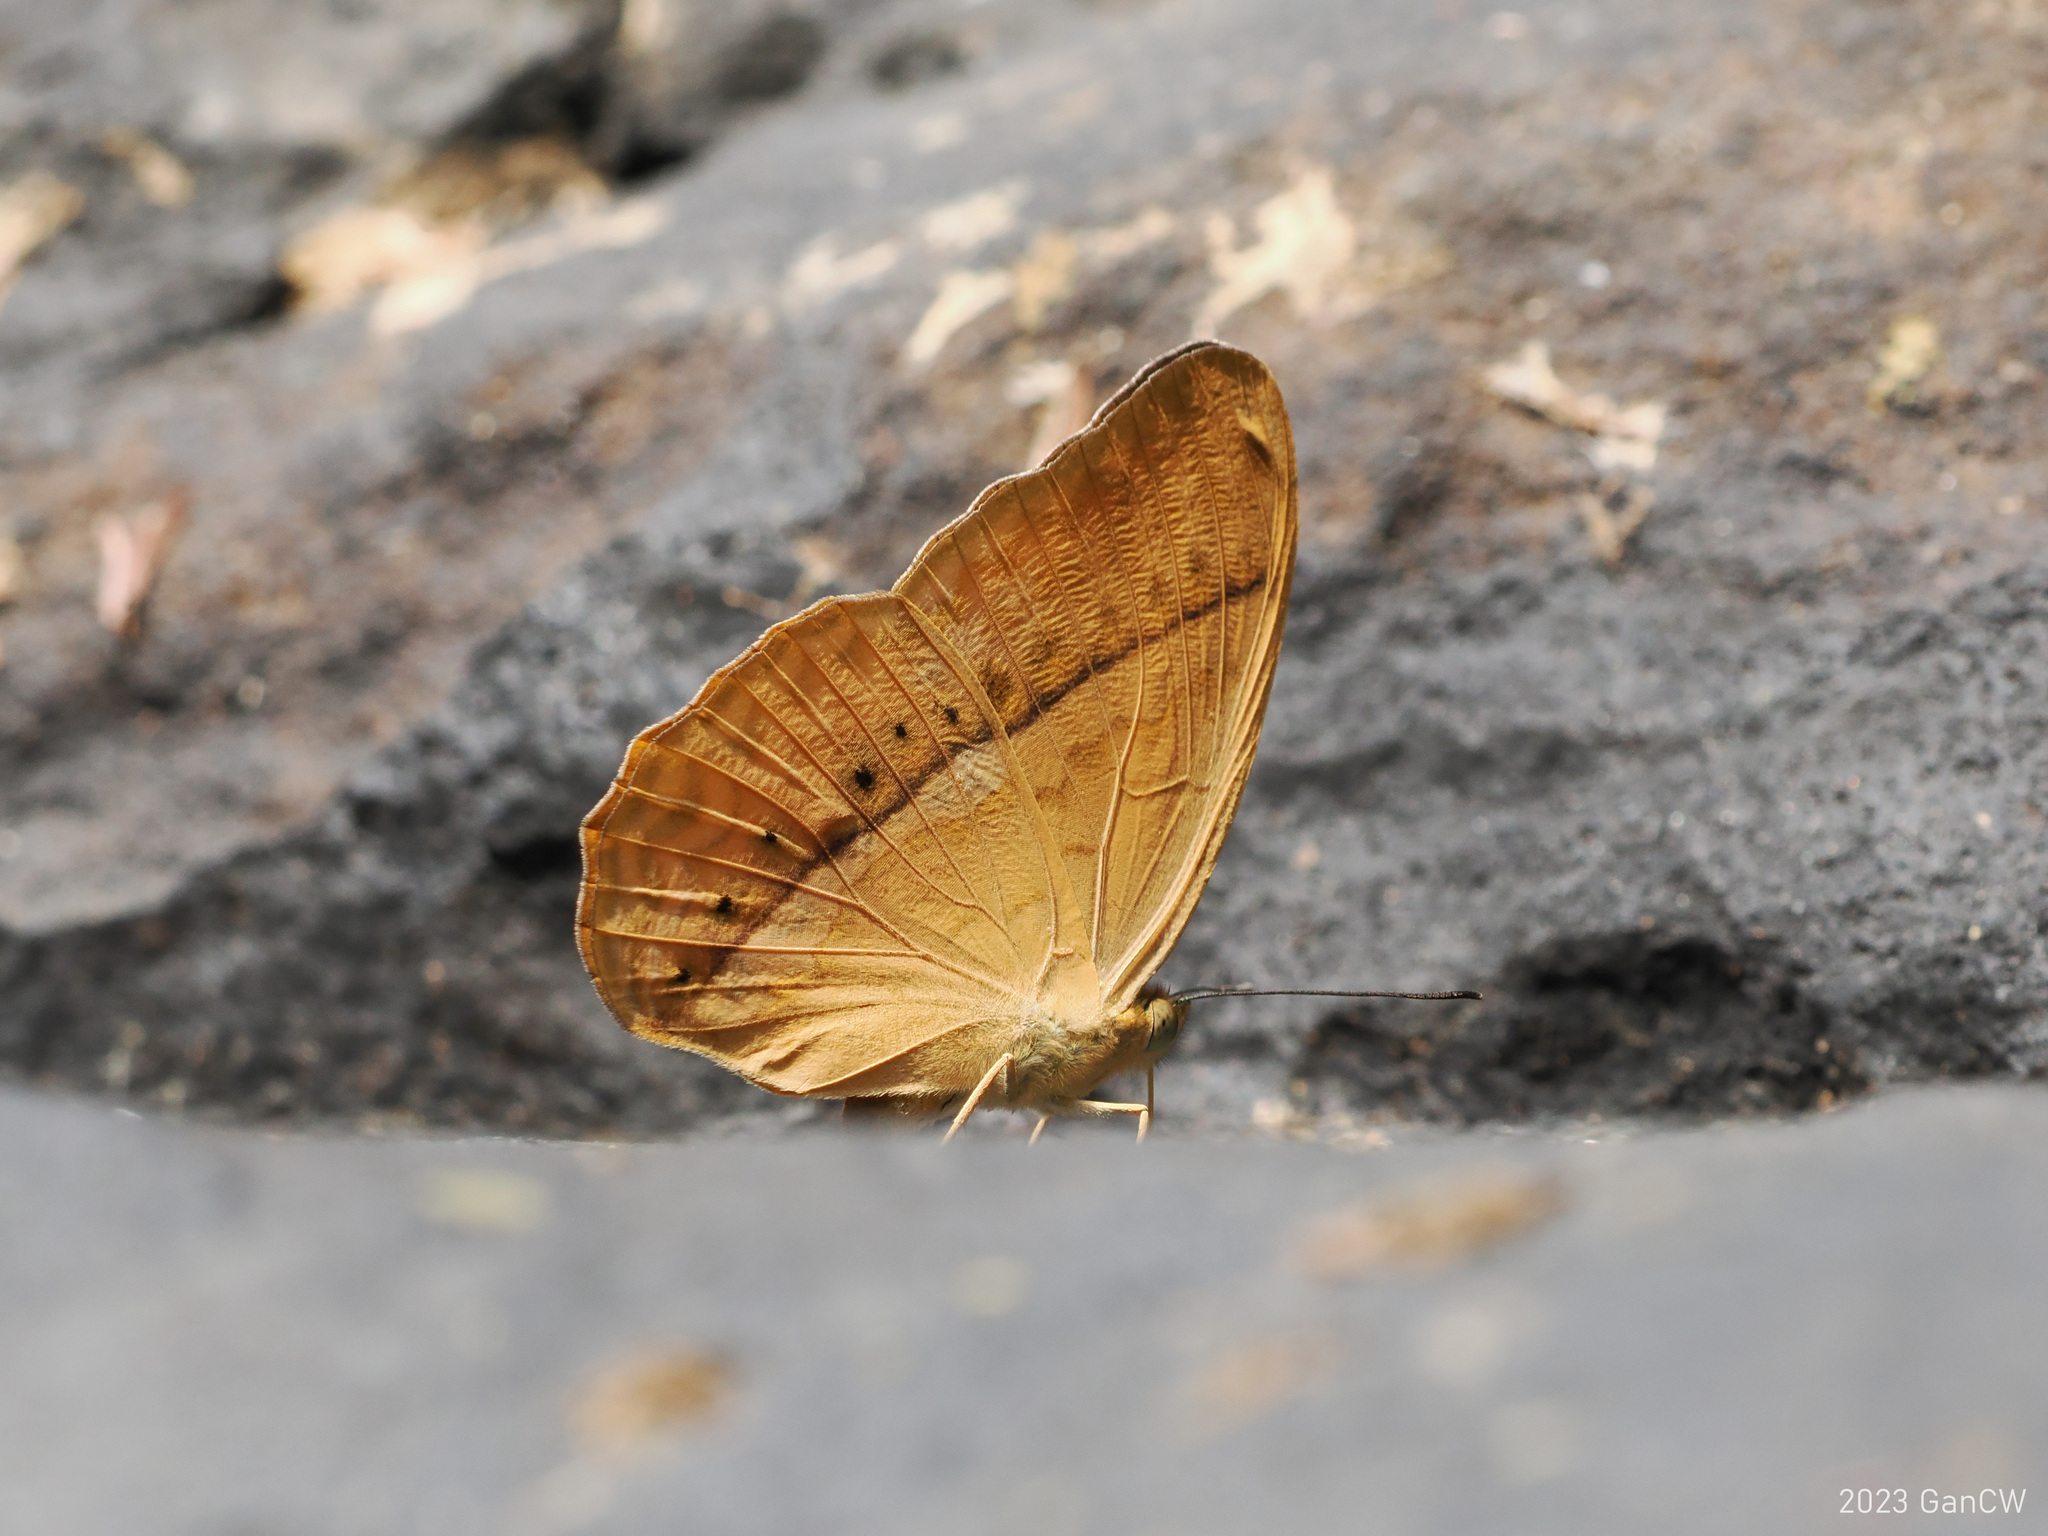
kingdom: Animalia
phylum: Arthropoda
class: Insecta
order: Lepidoptera
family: Nymphalidae
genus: Cirrochroa
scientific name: Cirrochroa tyche
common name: Common yeoman
